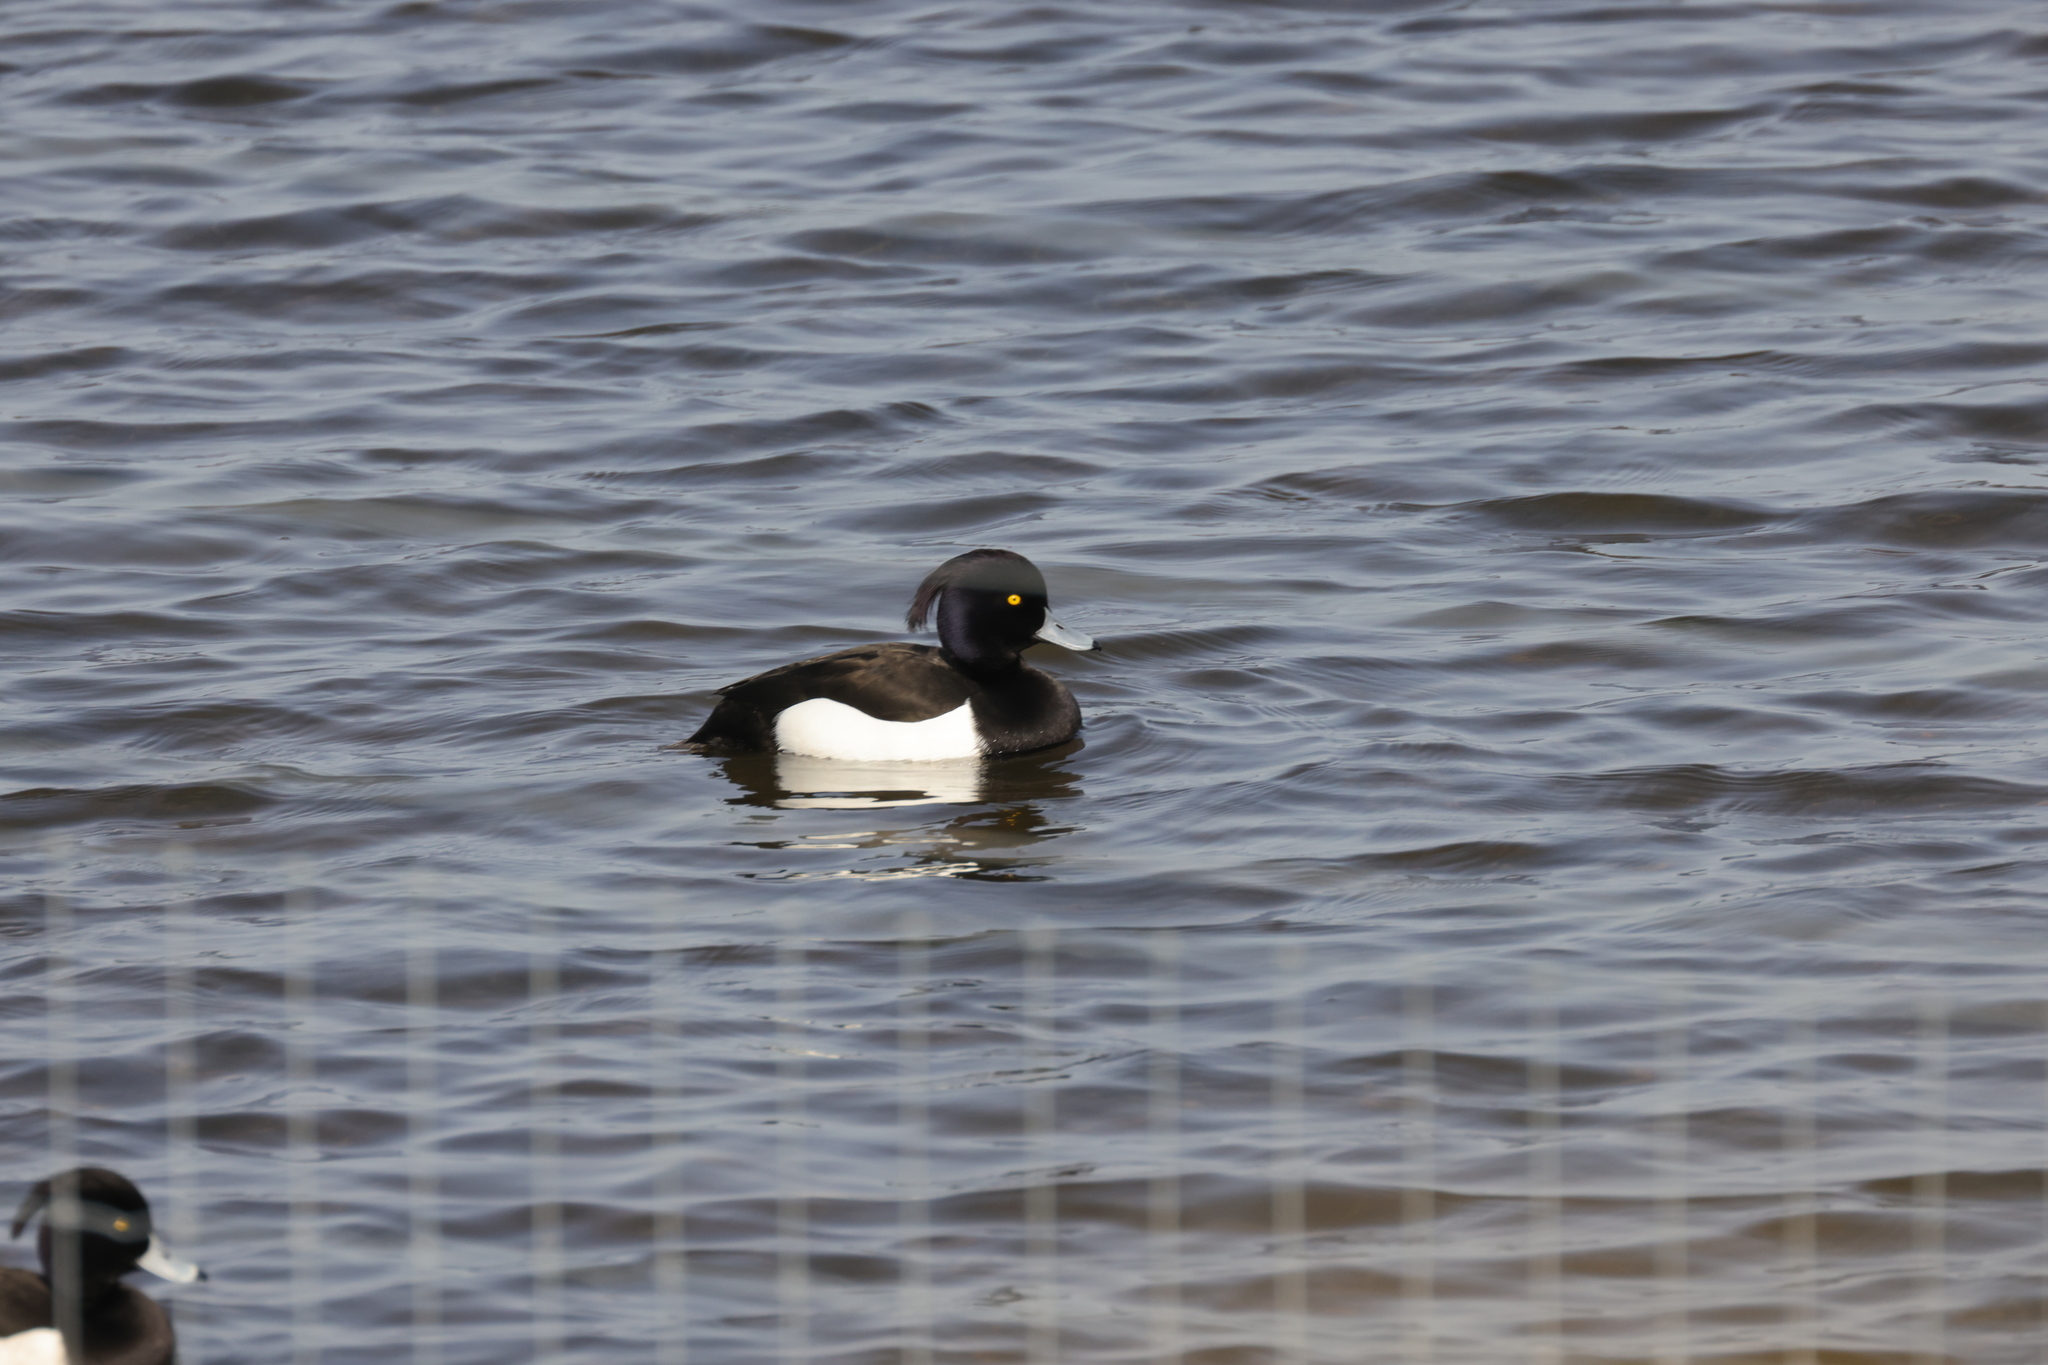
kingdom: Animalia
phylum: Chordata
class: Aves
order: Anseriformes
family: Anatidae
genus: Aythya
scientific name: Aythya fuligula
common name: Tufted duck
